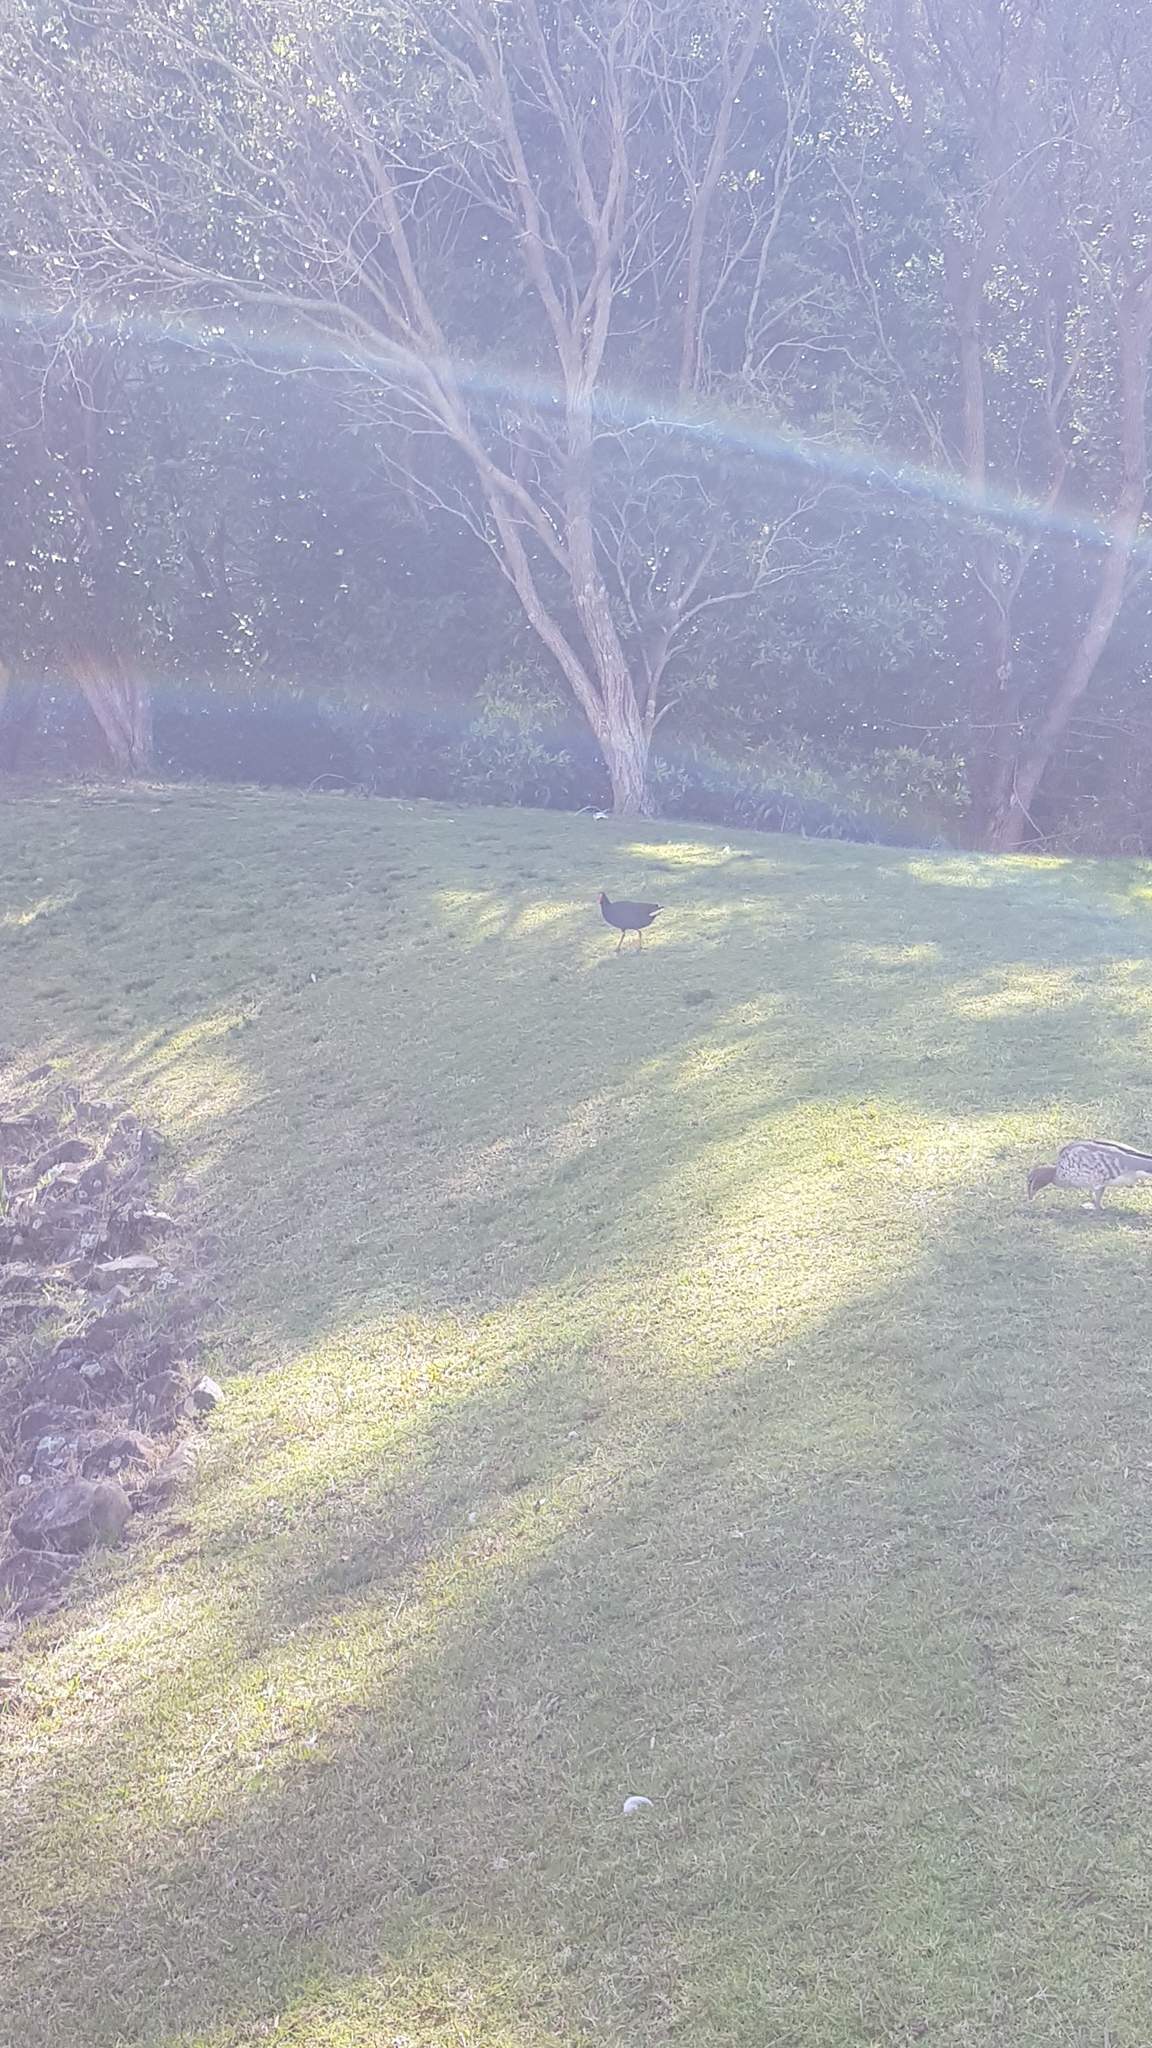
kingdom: Animalia
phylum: Chordata
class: Aves
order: Gruiformes
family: Rallidae
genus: Gallinula
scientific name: Gallinula tenebrosa
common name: Dusky moorhen
